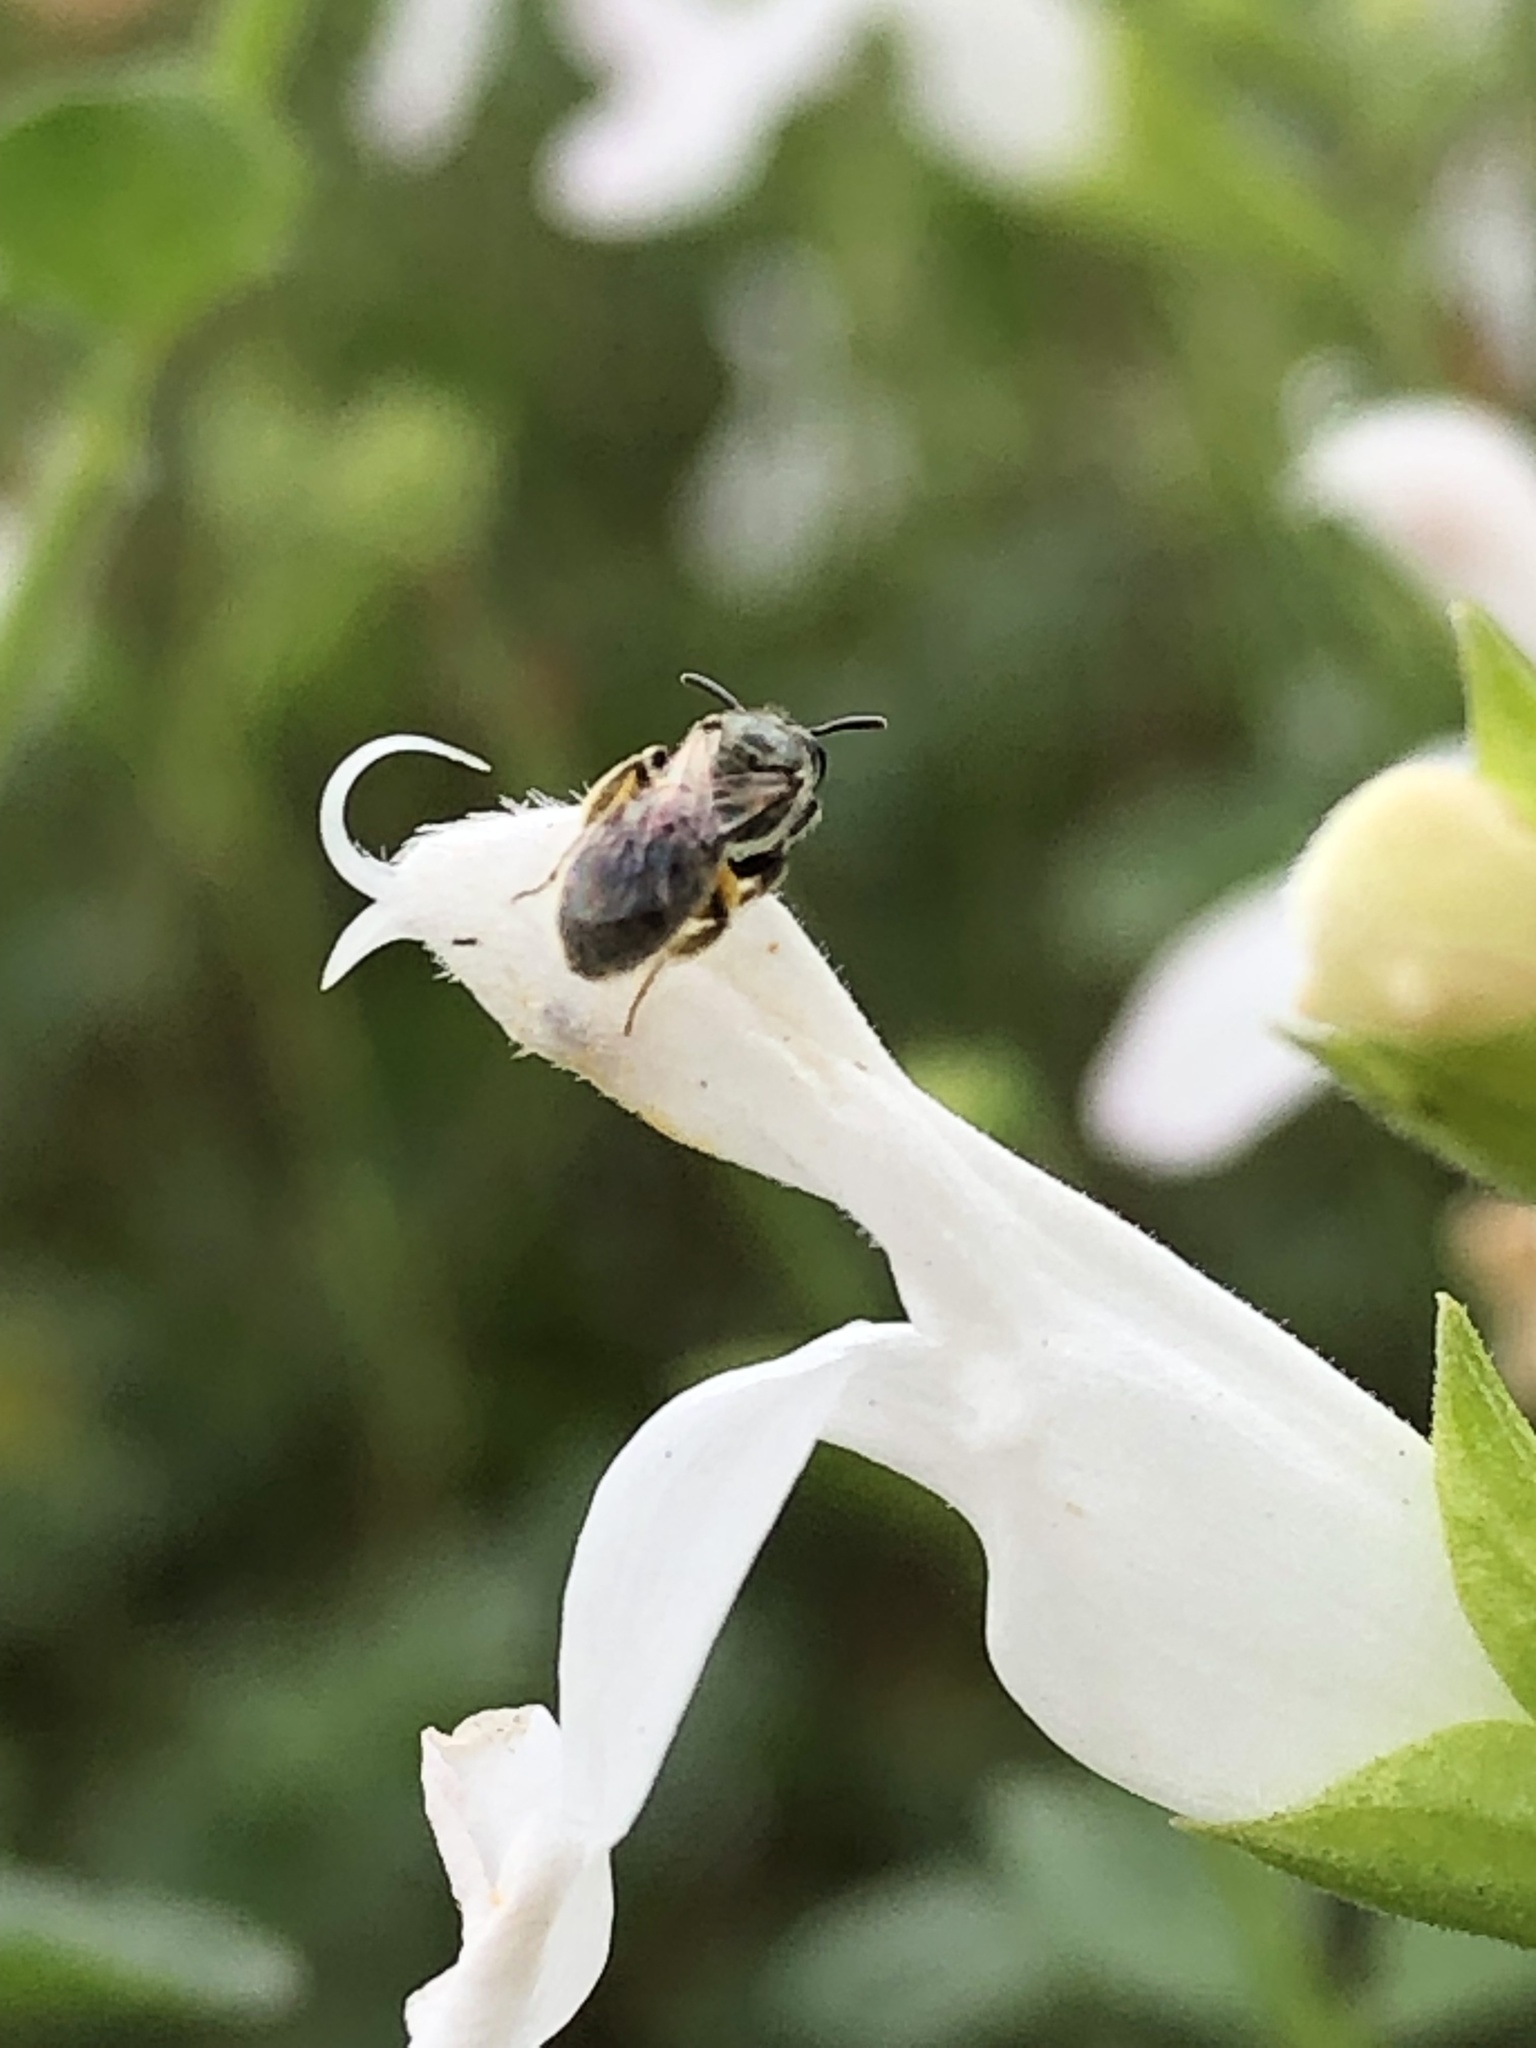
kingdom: Animalia
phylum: Arthropoda
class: Insecta
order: Hymenoptera
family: Halictidae
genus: Dialictus
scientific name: Dialictus
